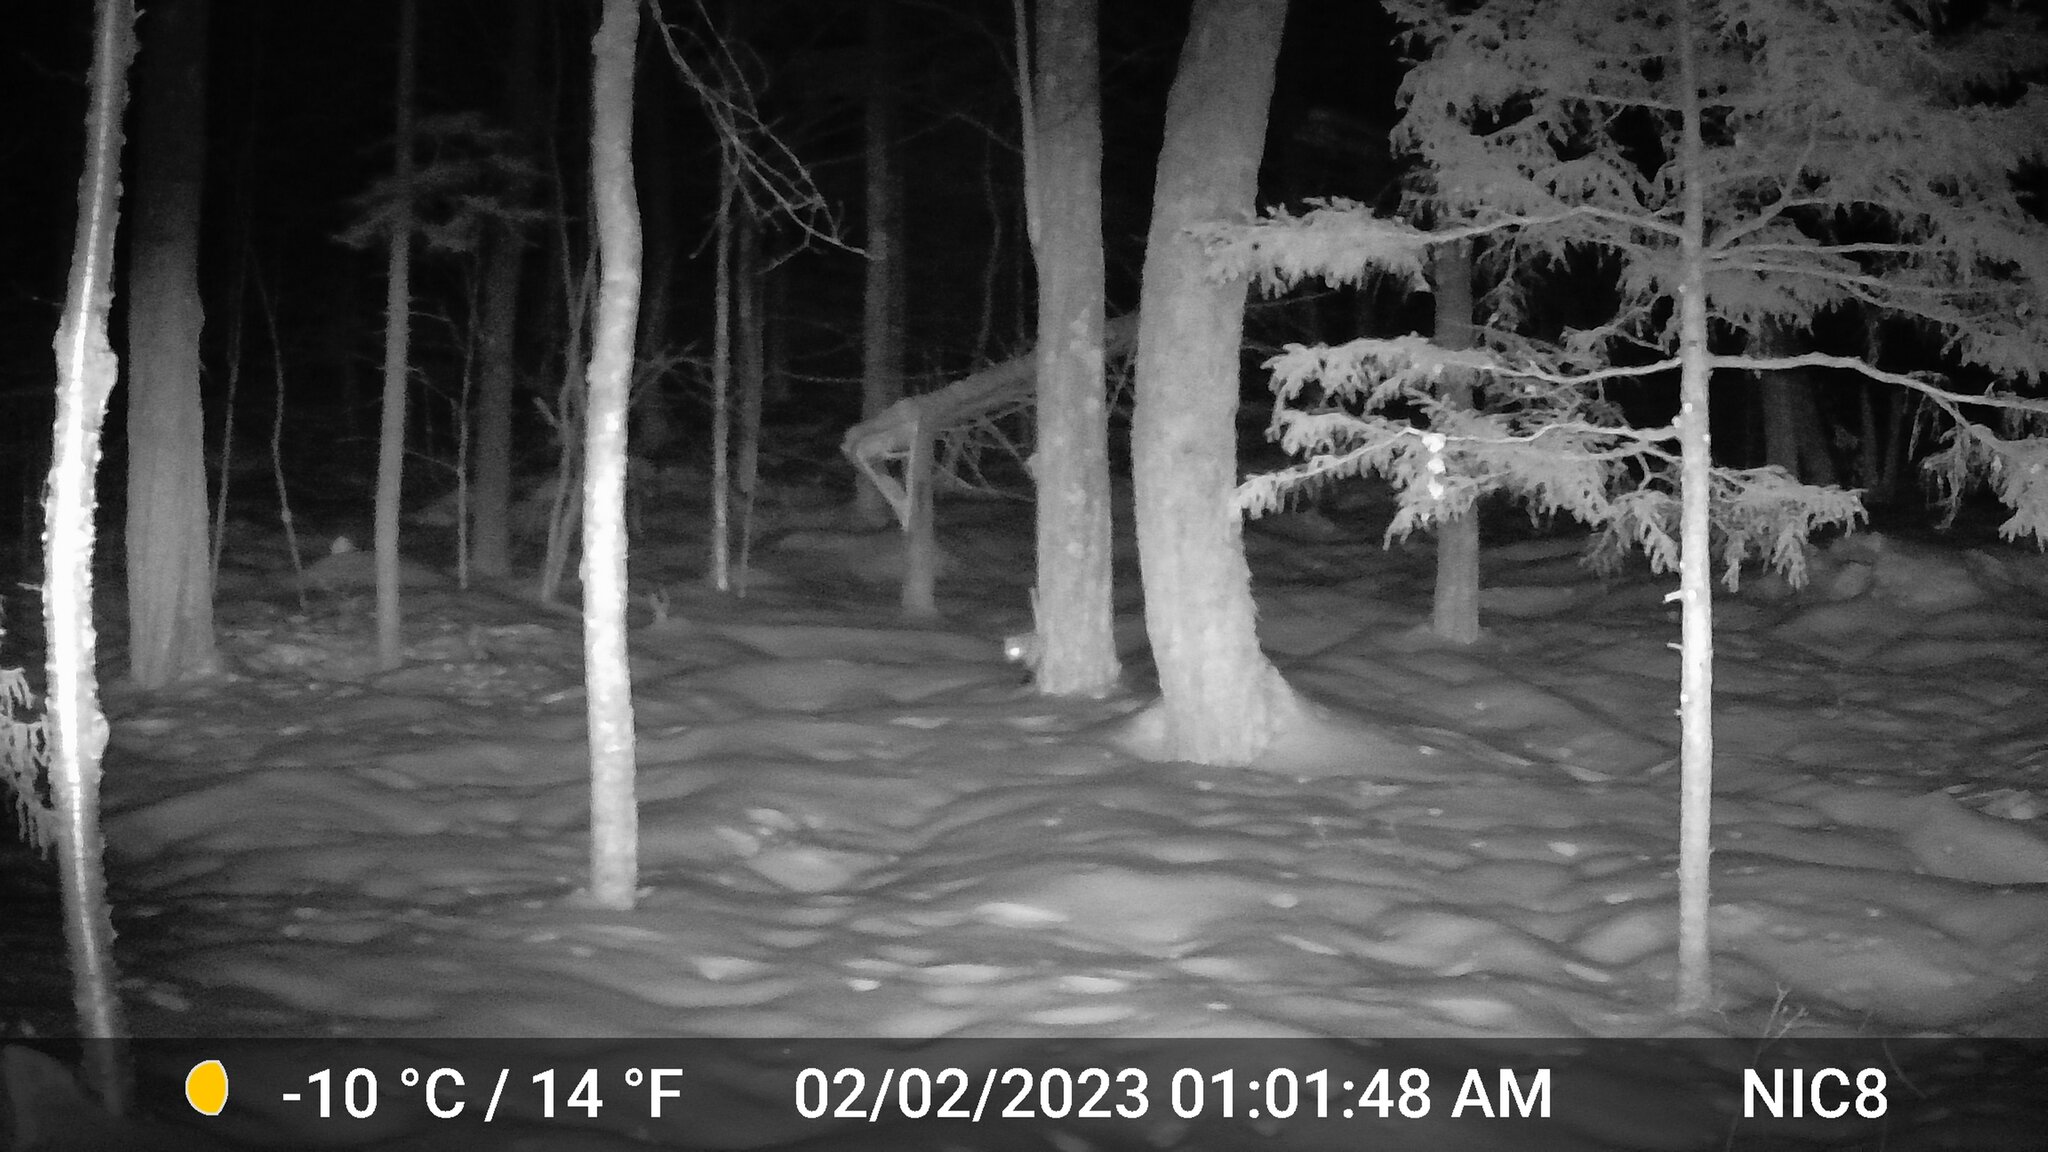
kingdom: Animalia
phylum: Chordata
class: Mammalia
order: Carnivora
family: Canidae
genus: Vulpes
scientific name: Vulpes vulpes
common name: Red fox
